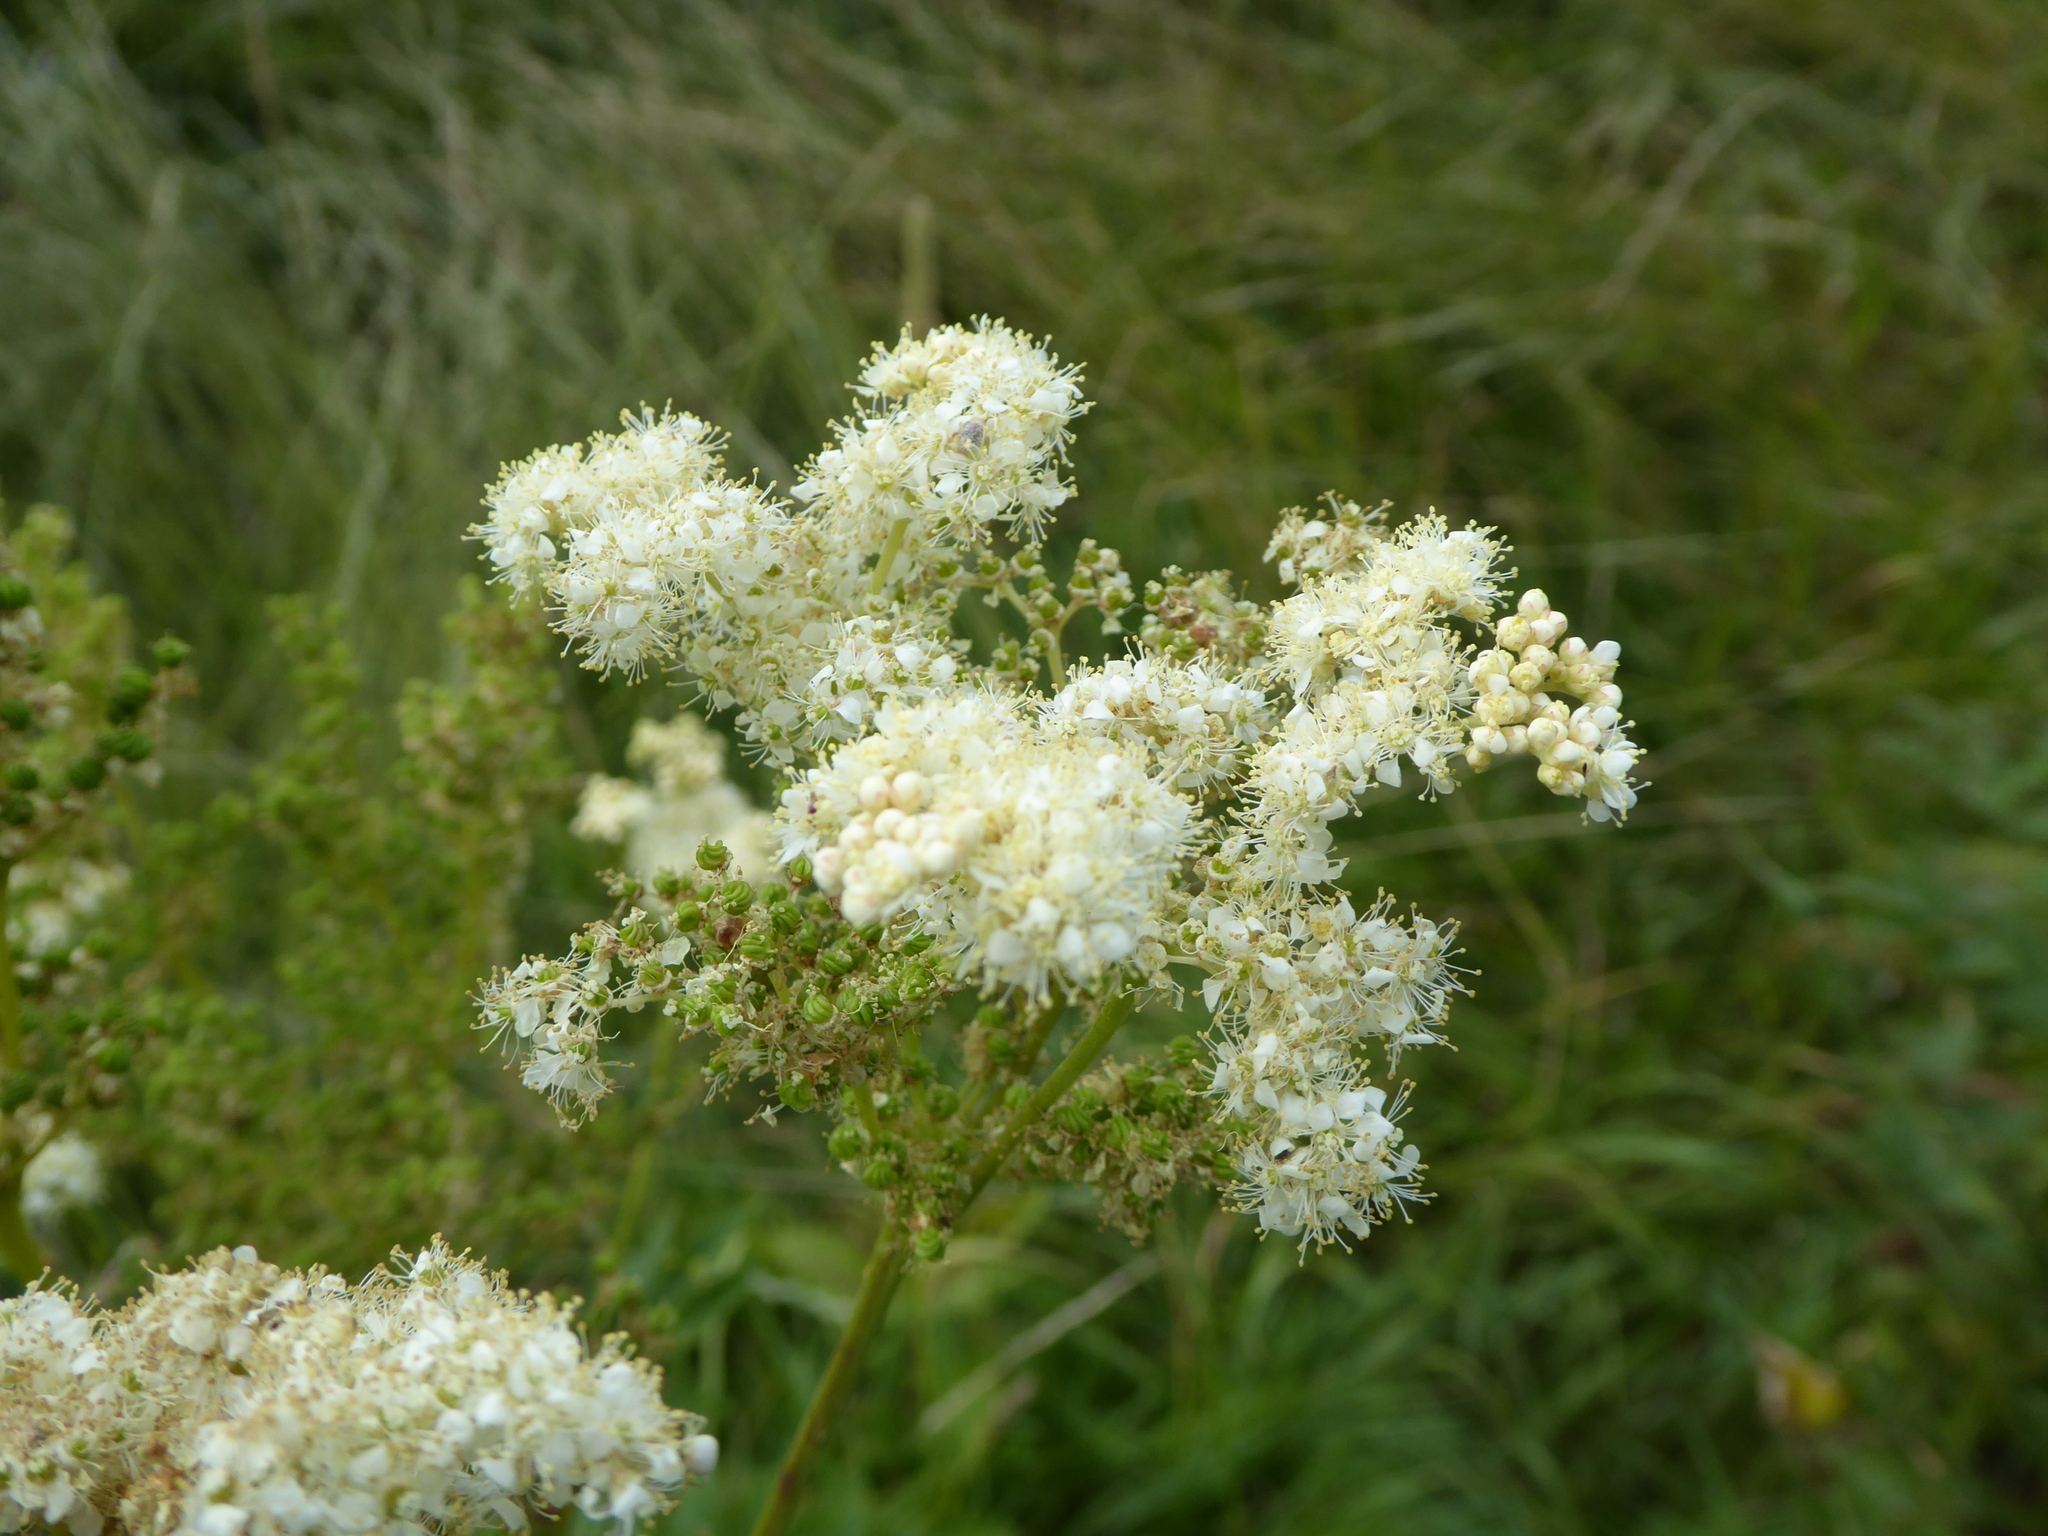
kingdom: Plantae
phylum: Tracheophyta
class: Magnoliopsida
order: Rosales
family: Rosaceae
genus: Filipendula
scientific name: Filipendula ulmaria
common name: Meadowsweet
